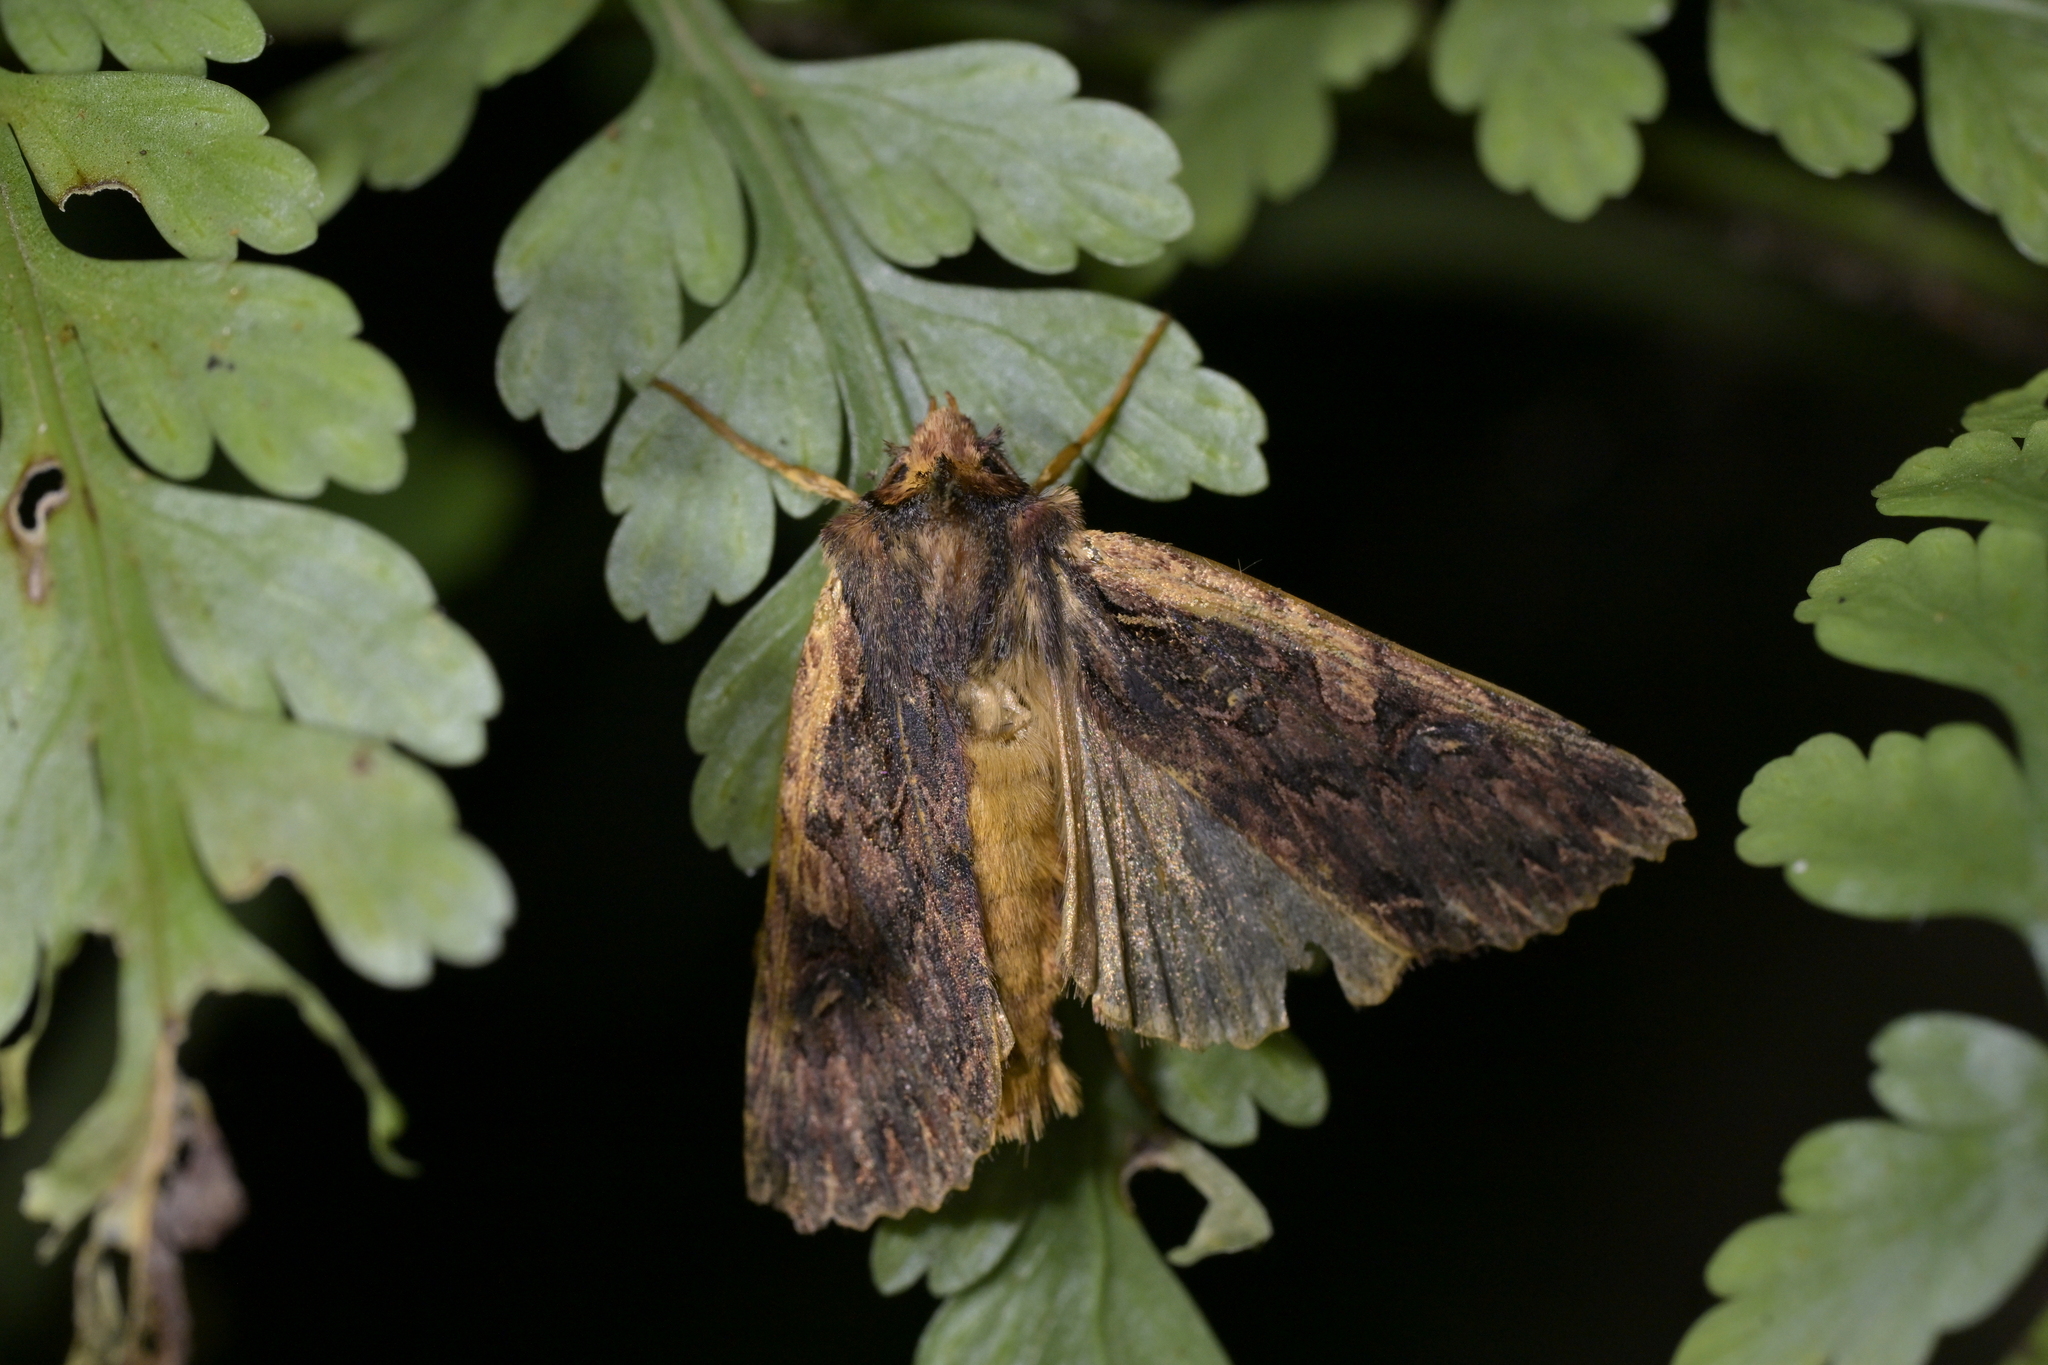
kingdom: Animalia
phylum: Arthropoda
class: Insecta
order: Lepidoptera
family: Noctuidae
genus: Meterana
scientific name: Meterana alcyone
